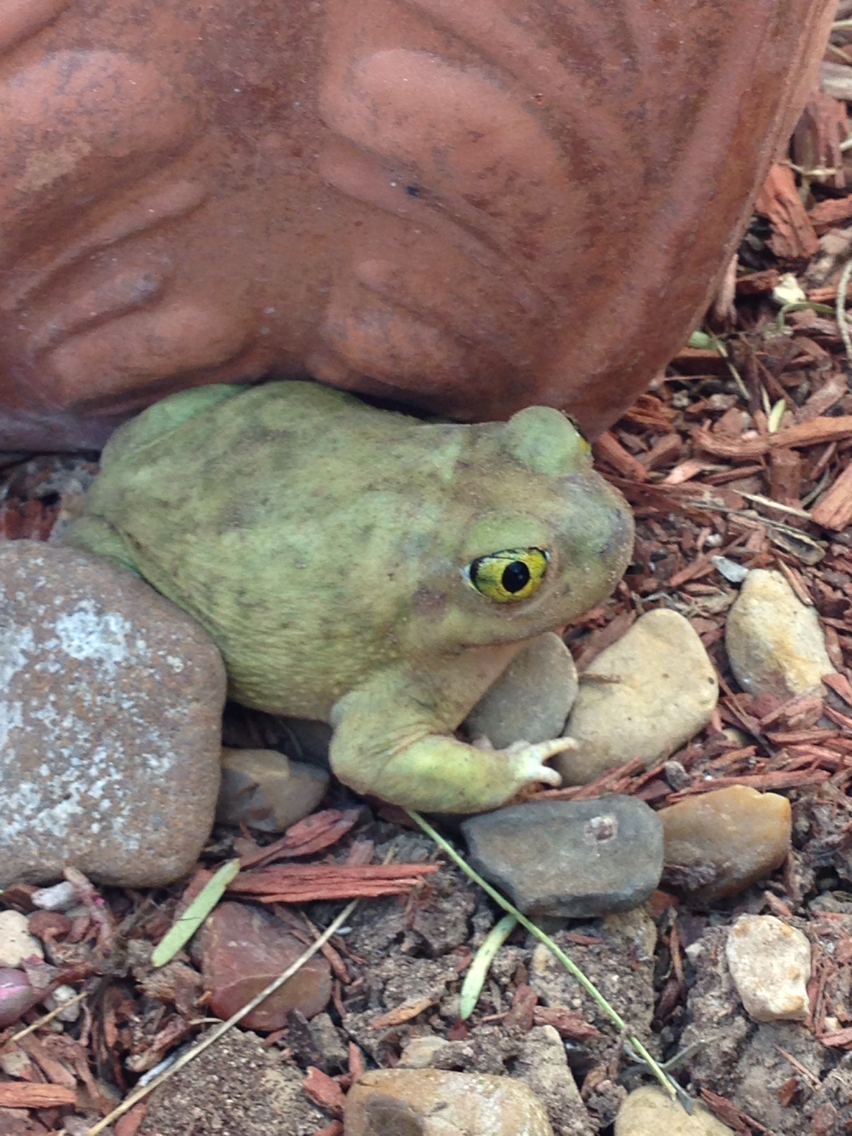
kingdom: Animalia
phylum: Chordata
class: Amphibia
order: Anura
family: Scaphiopodidae
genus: Scaphiopus
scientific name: Scaphiopus couchii
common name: Couch's spadefoot toad
